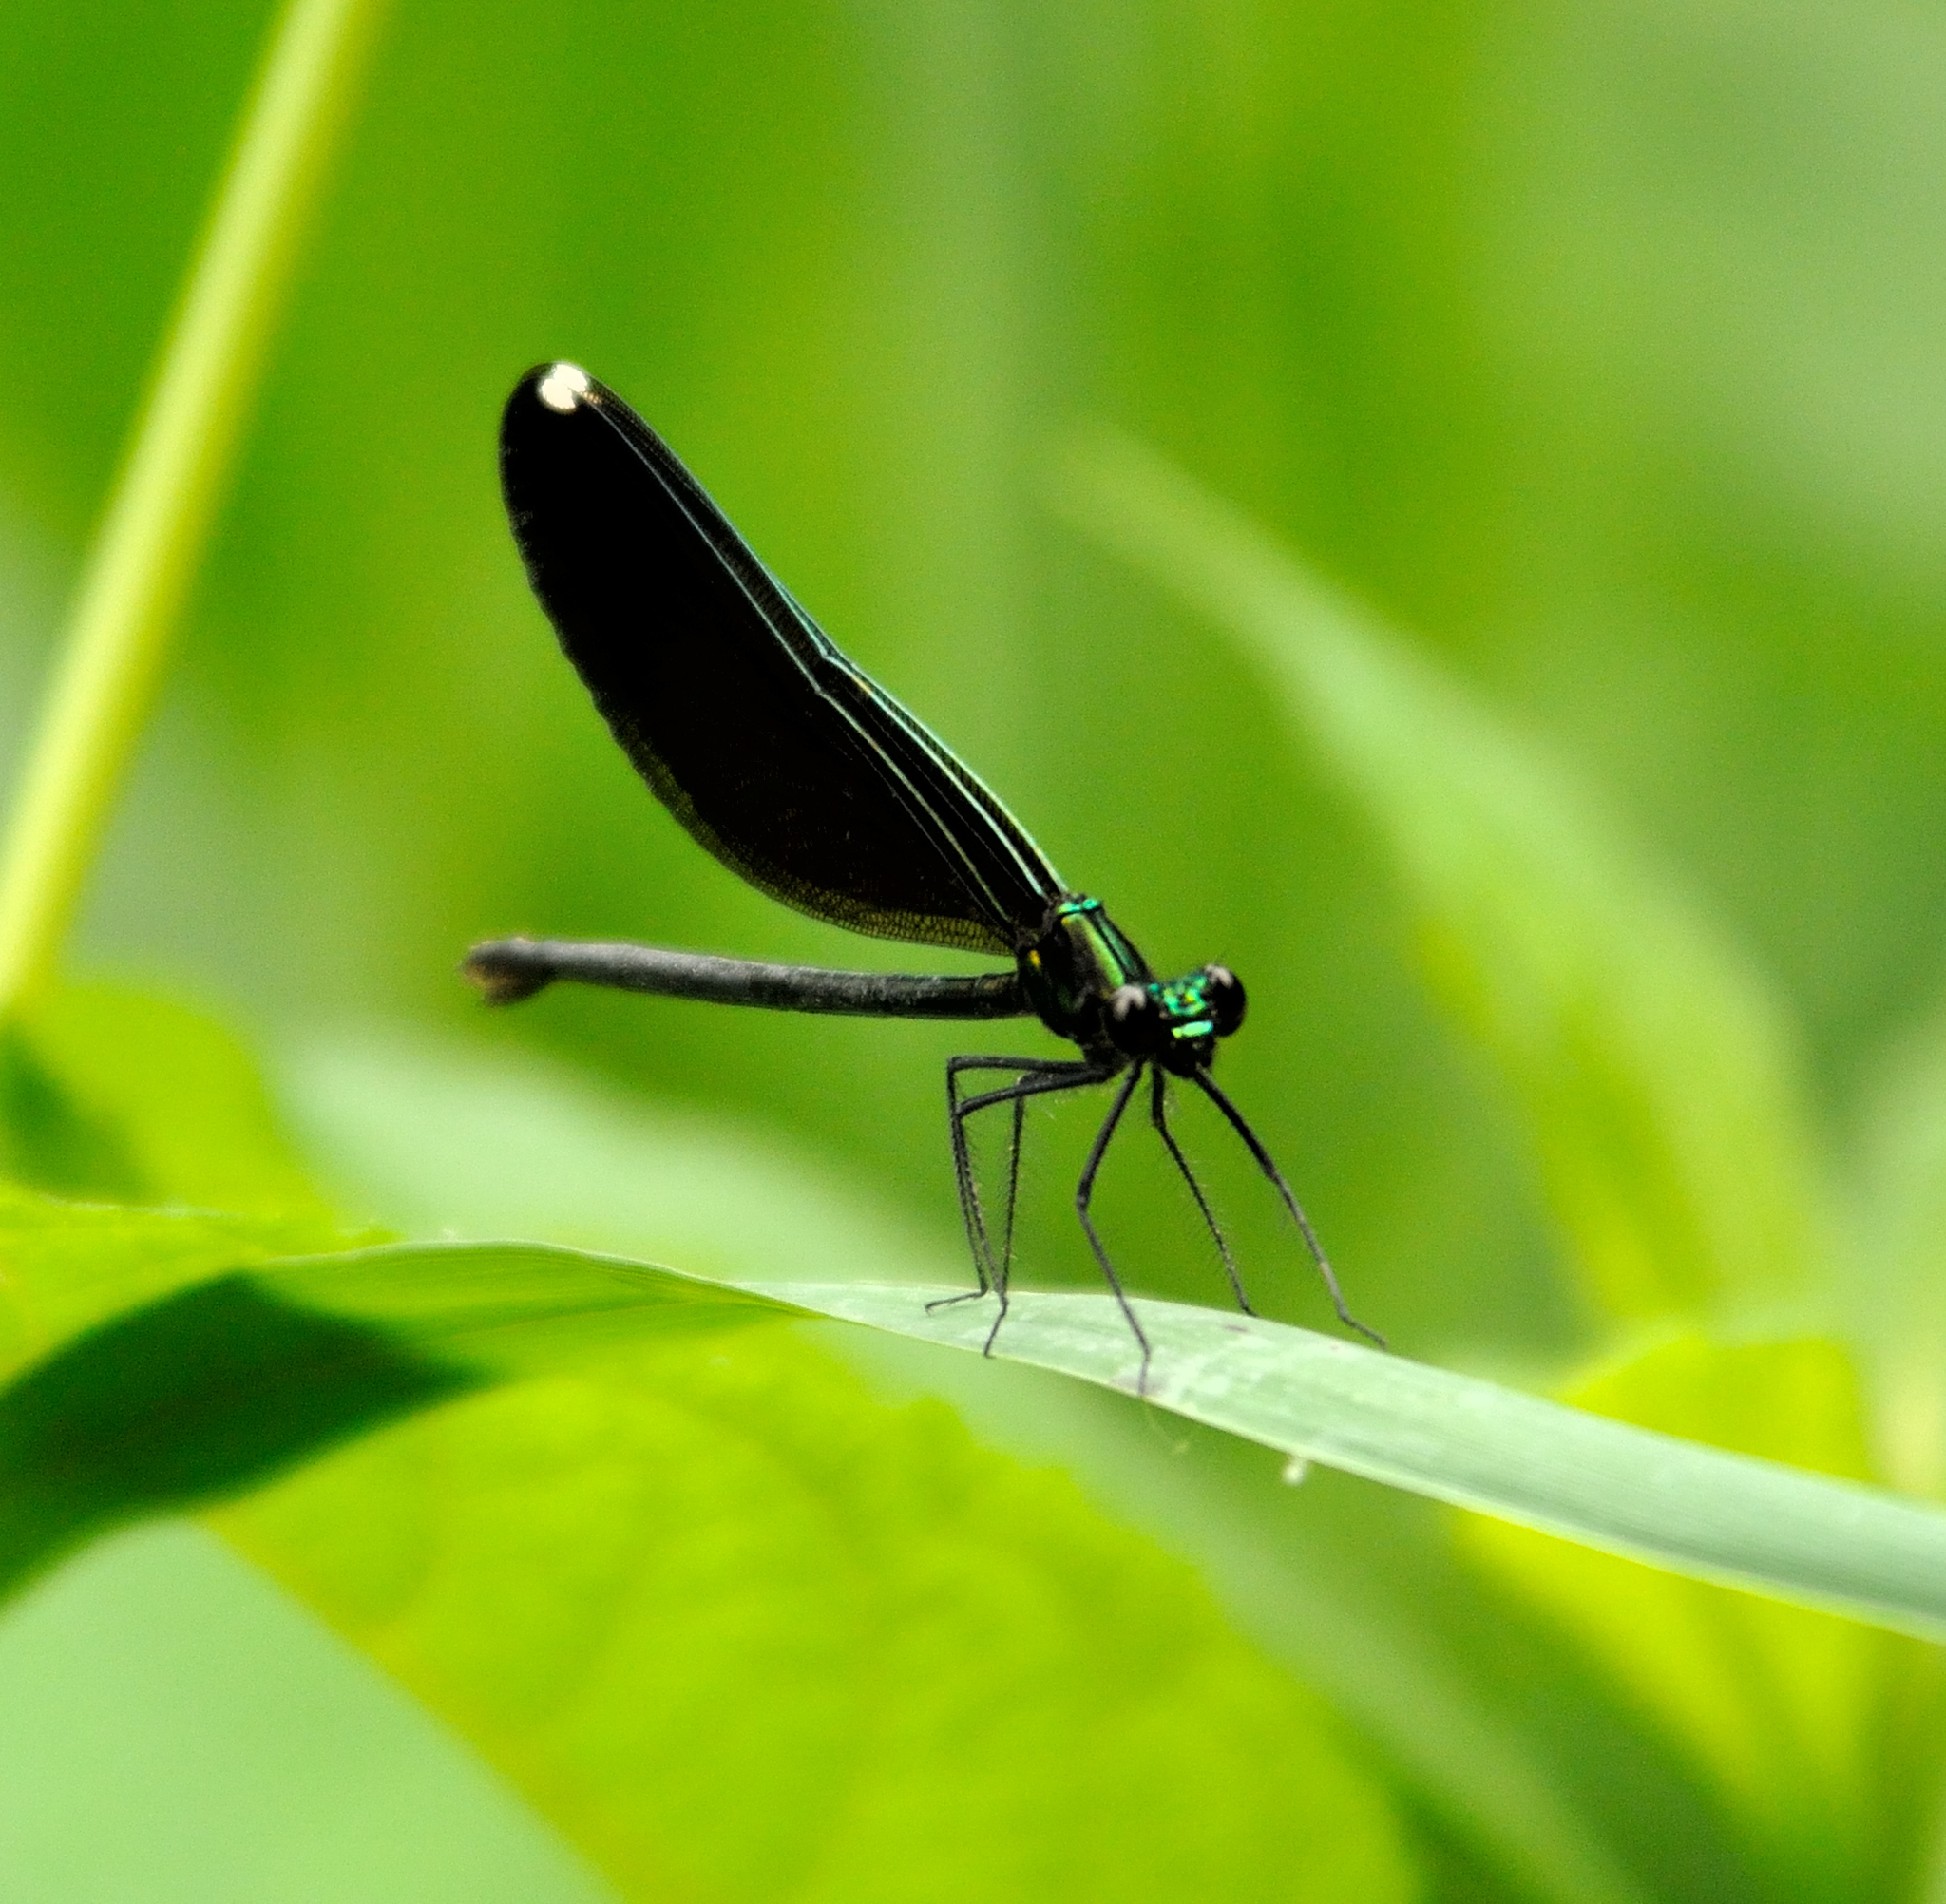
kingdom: Animalia
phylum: Arthropoda
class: Insecta
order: Odonata
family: Calopterygidae
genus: Calopteryx
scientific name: Calopteryx maculata
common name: Ebony jewelwing
